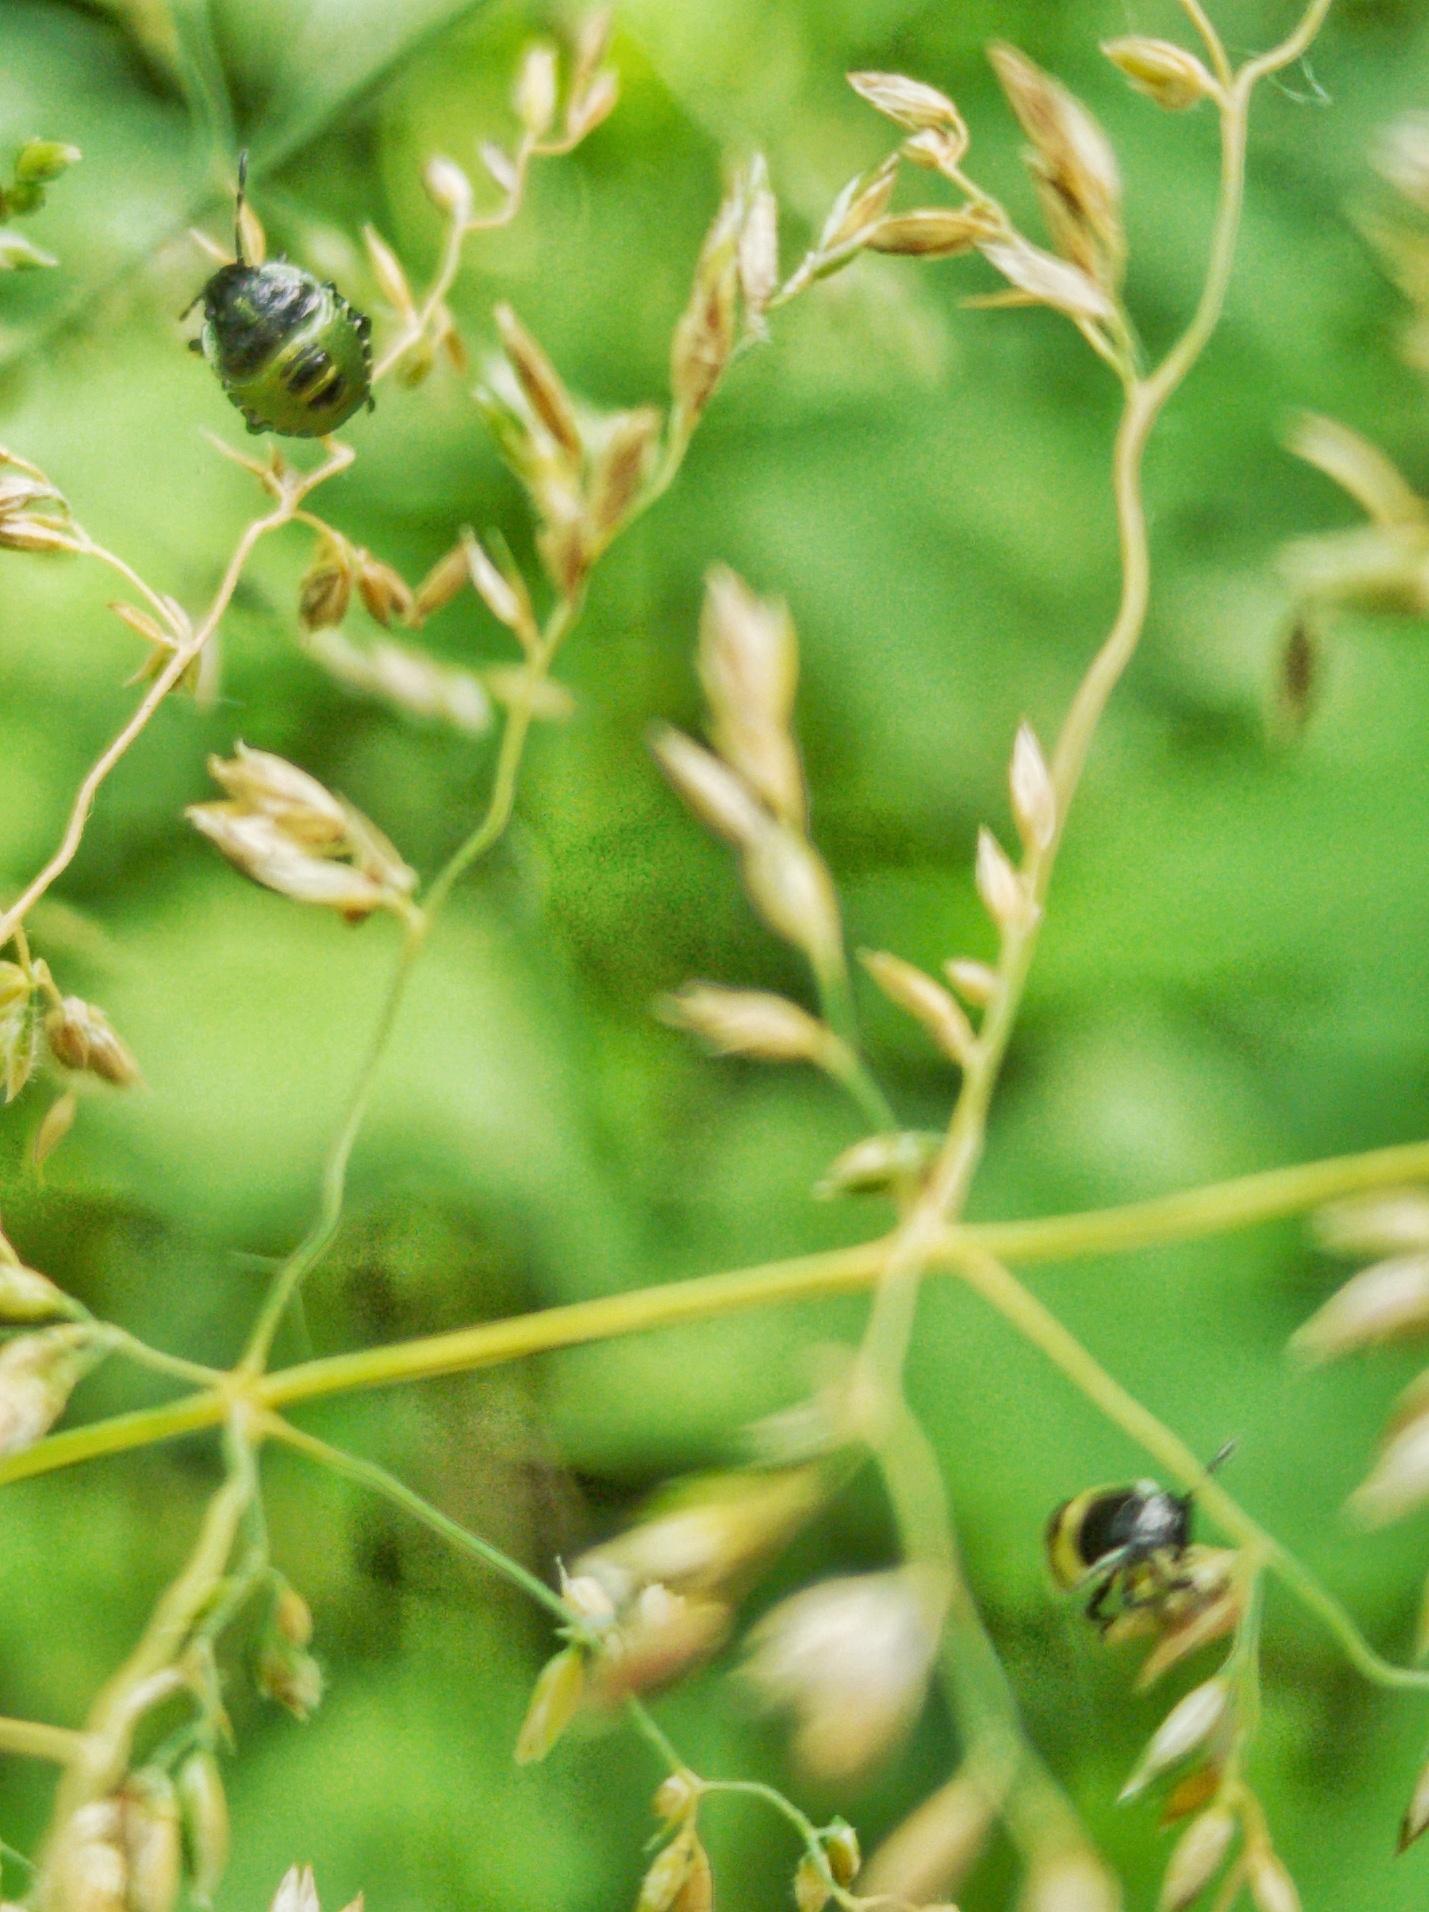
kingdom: Animalia
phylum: Arthropoda
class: Insecta
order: Hemiptera
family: Pentatomidae
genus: Palomena
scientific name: Palomena prasina
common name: Green shieldbug
